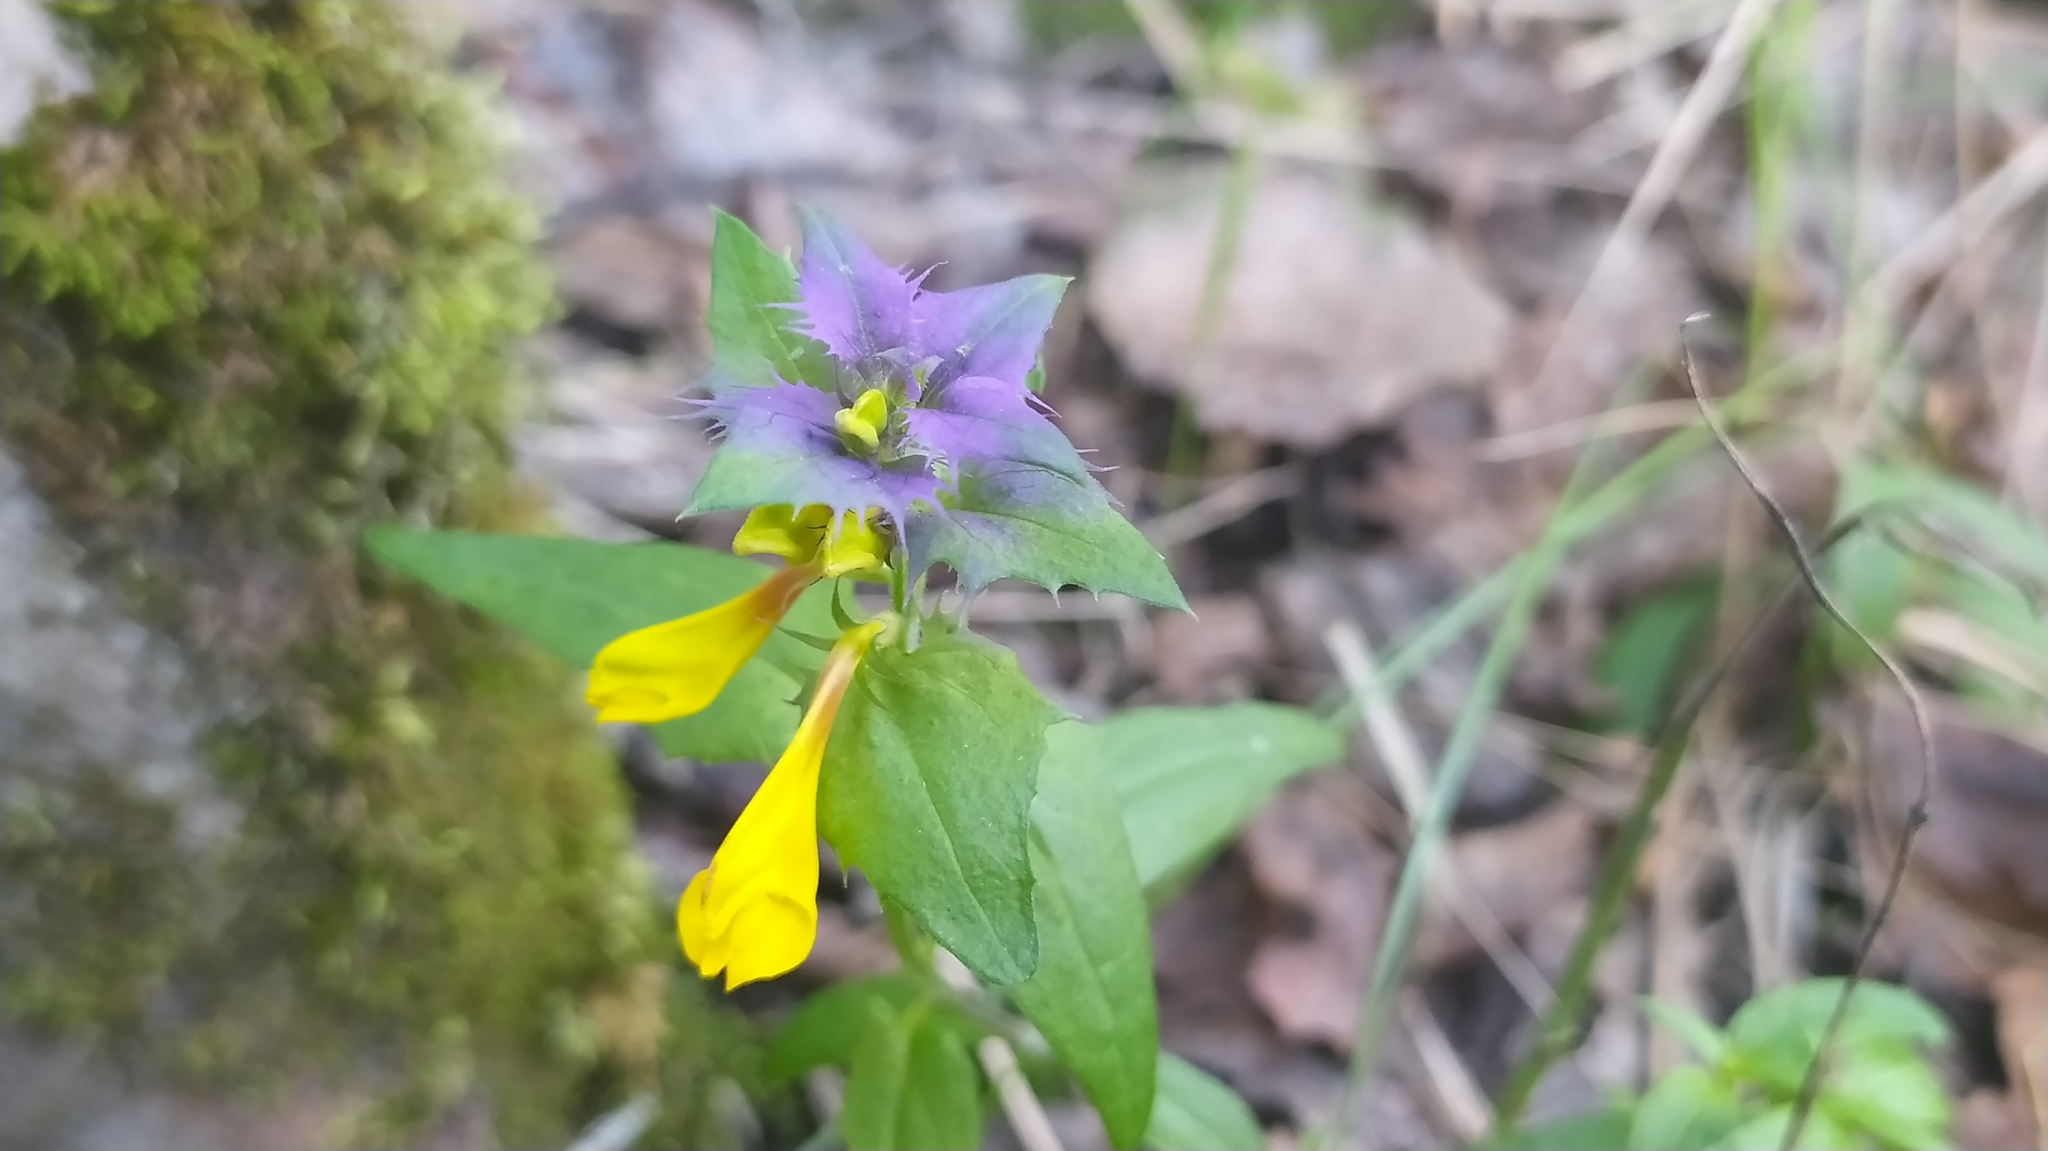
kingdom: Plantae
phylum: Tracheophyta
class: Magnoliopsida
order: Lamiales
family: Orobanchaceae
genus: Melampyrum
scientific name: Melampyrum nemorosum
